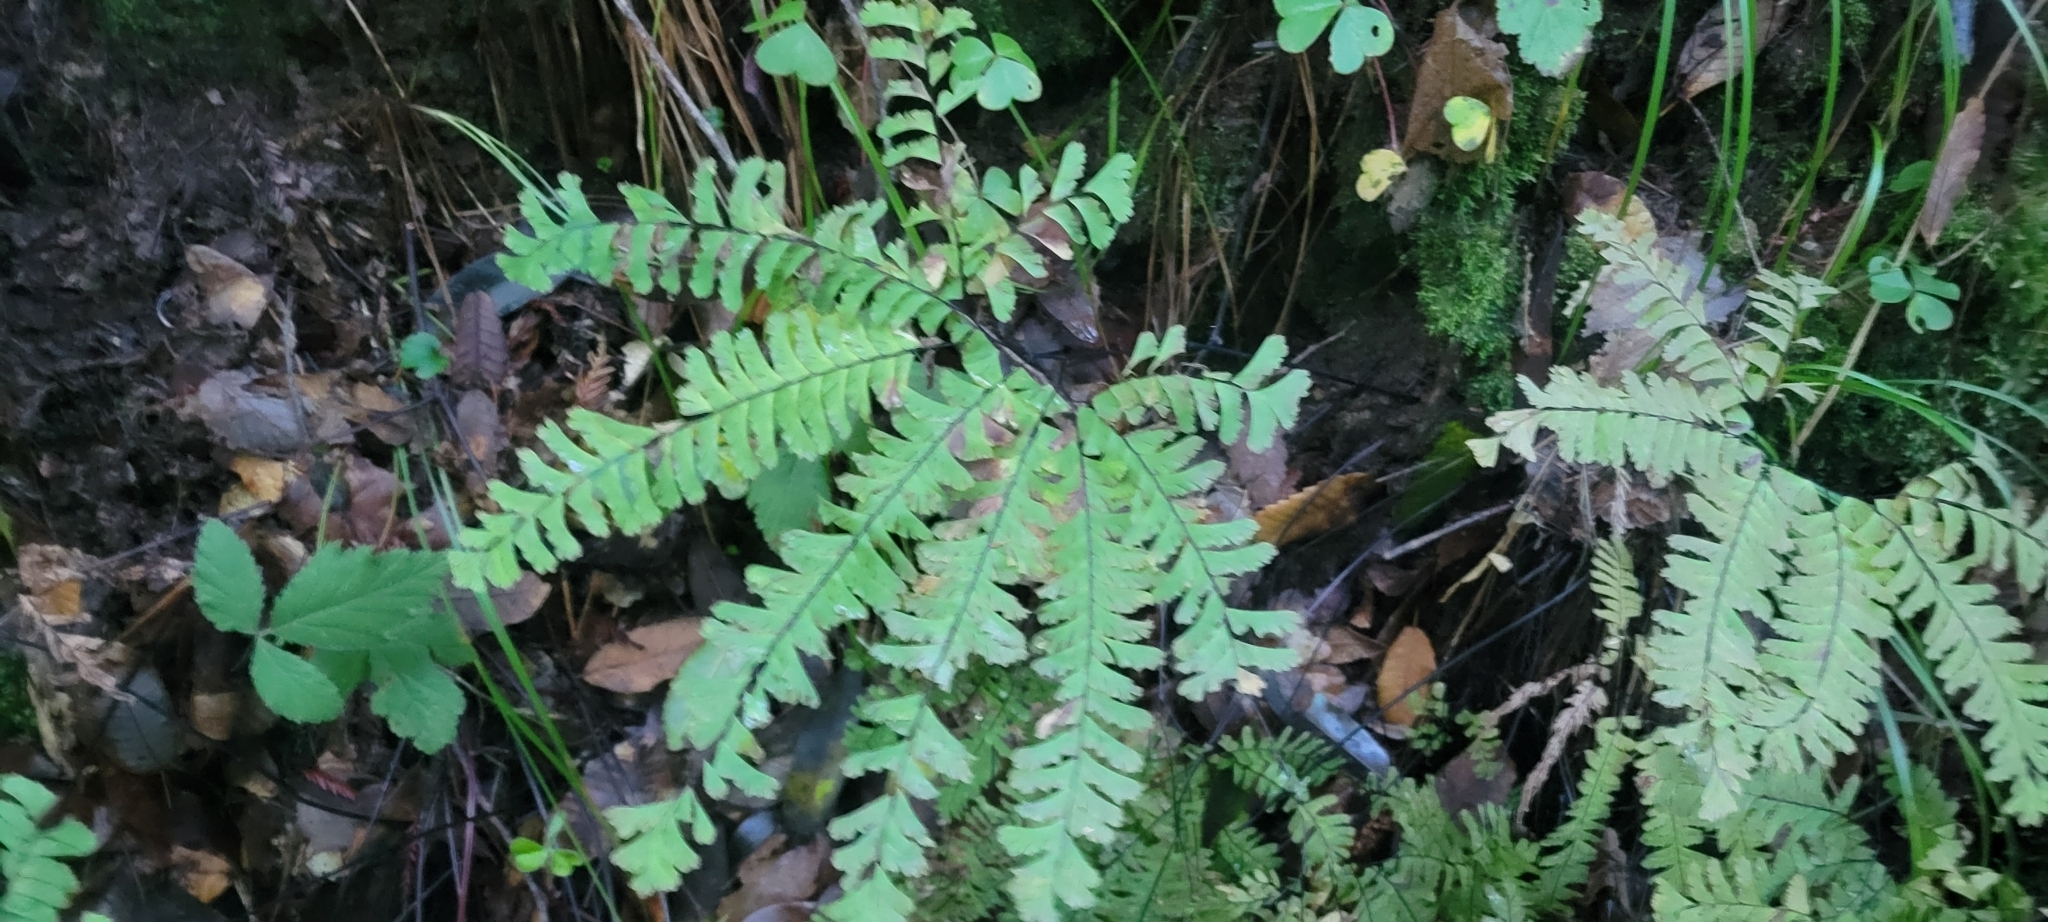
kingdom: Plantae
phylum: Tracheophyta
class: Polypodiopsida
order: Polypodiales
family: Pteridaceae
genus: Adiantum
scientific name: Adiantum aleuticum
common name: Aleutian maidenhair fern
